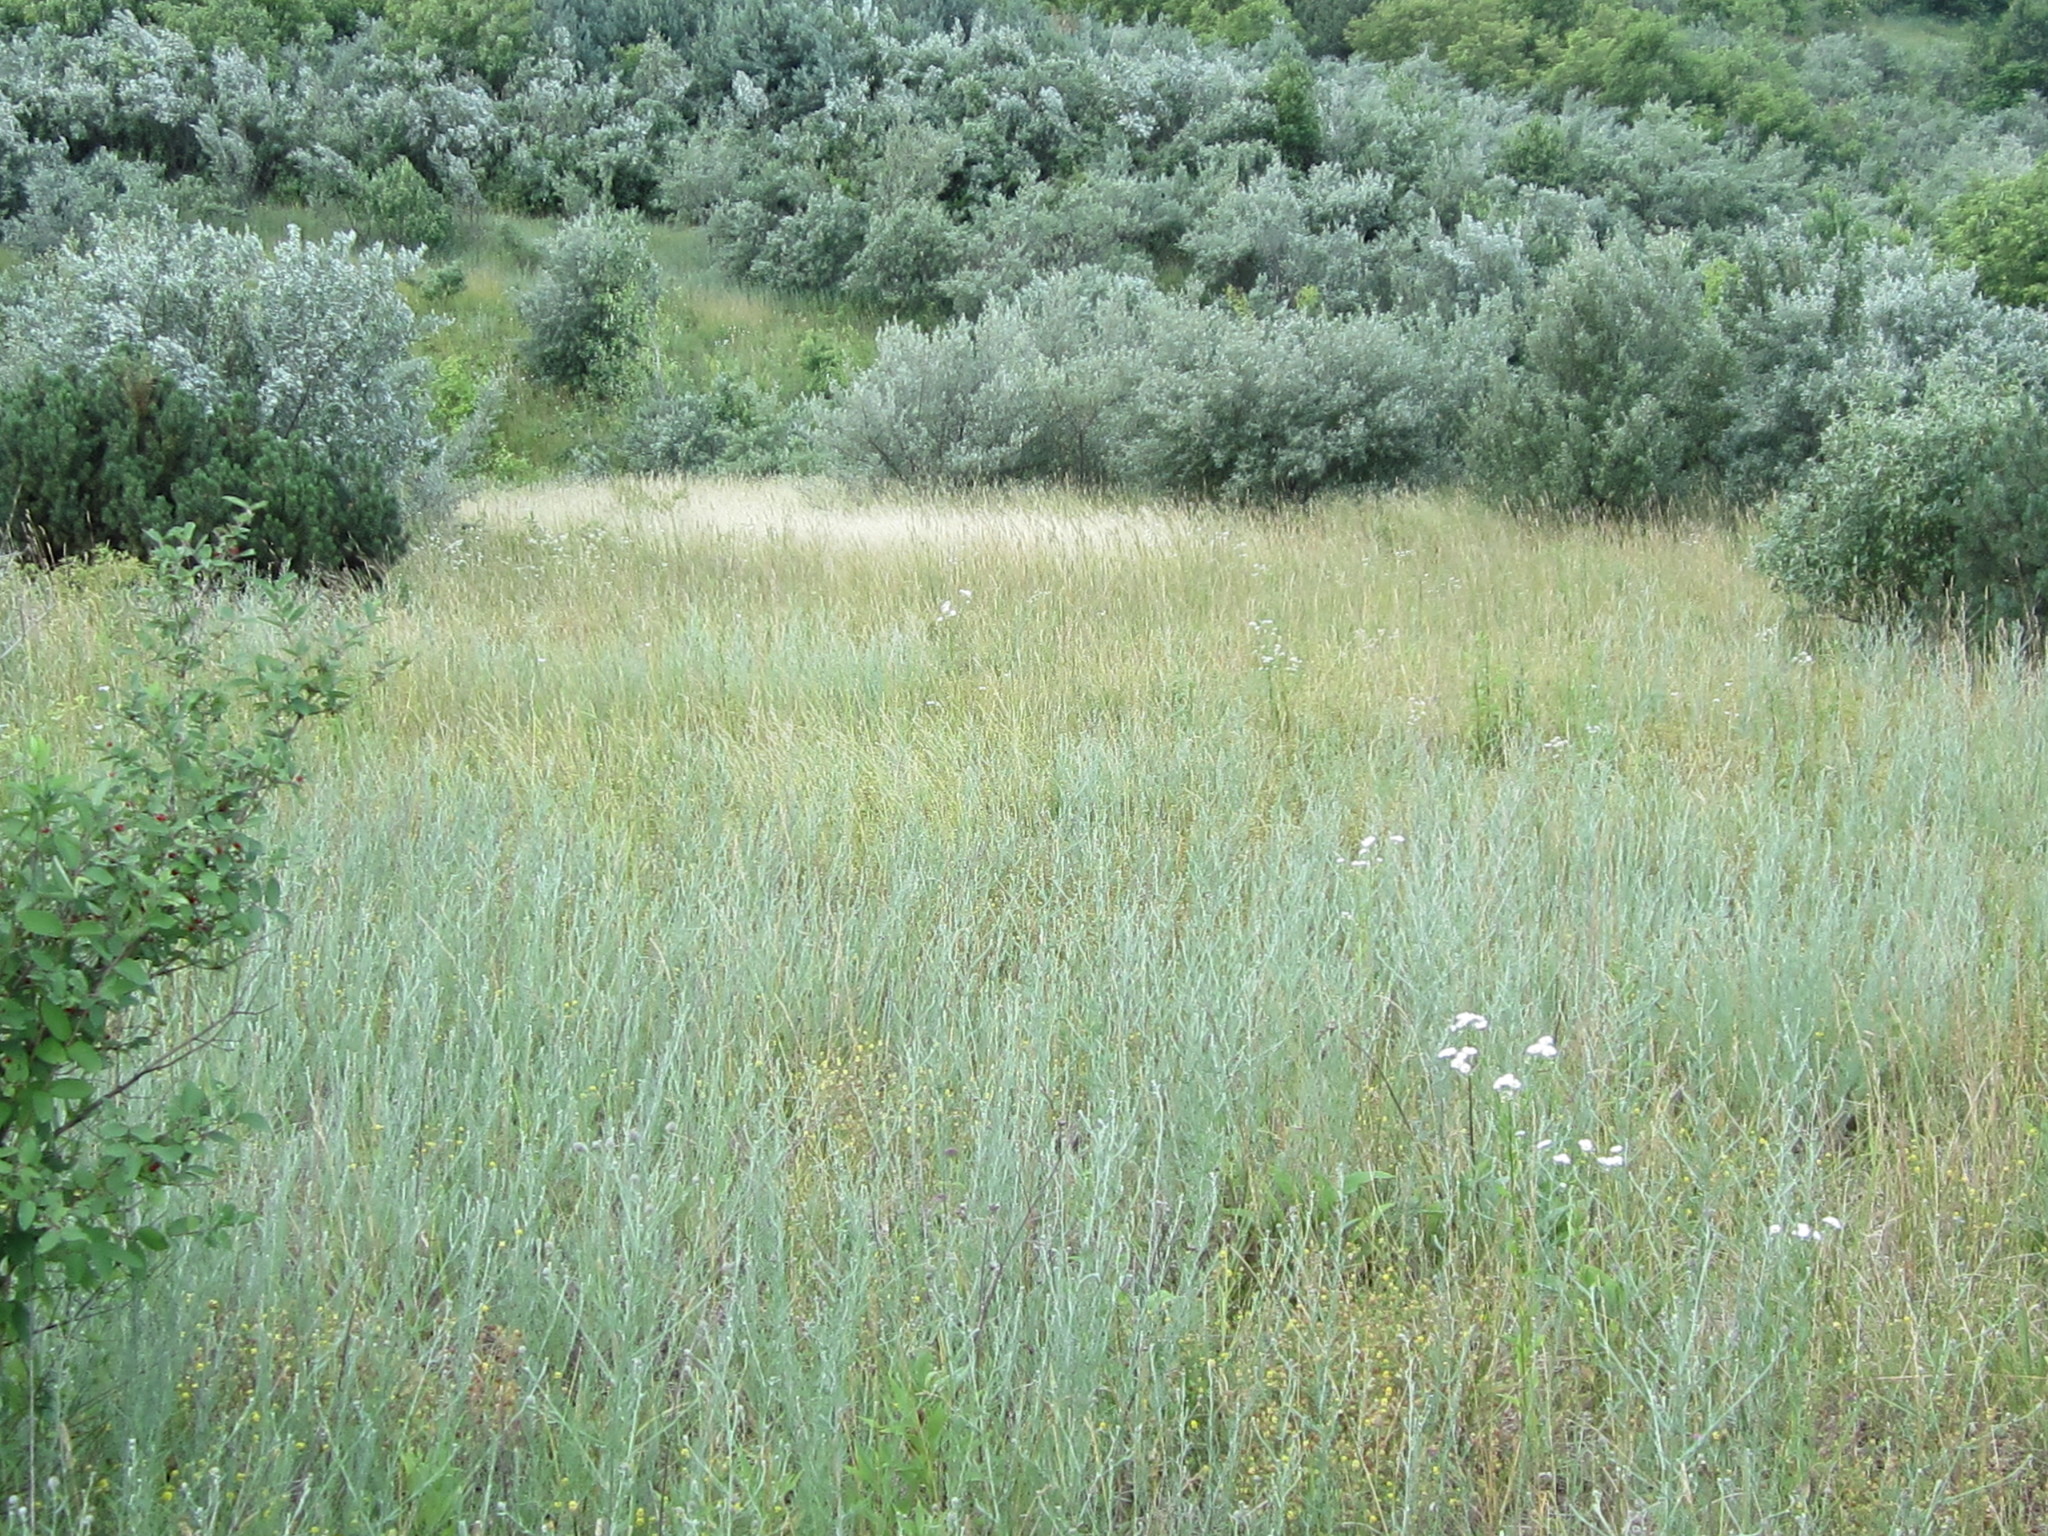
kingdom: Plantae
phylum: Tracheophyta
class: Magnoliopsida
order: Rosales
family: Elaeagnaceae
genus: Elaeagnus
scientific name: Elaeagnus umbellata
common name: Autumn olive
